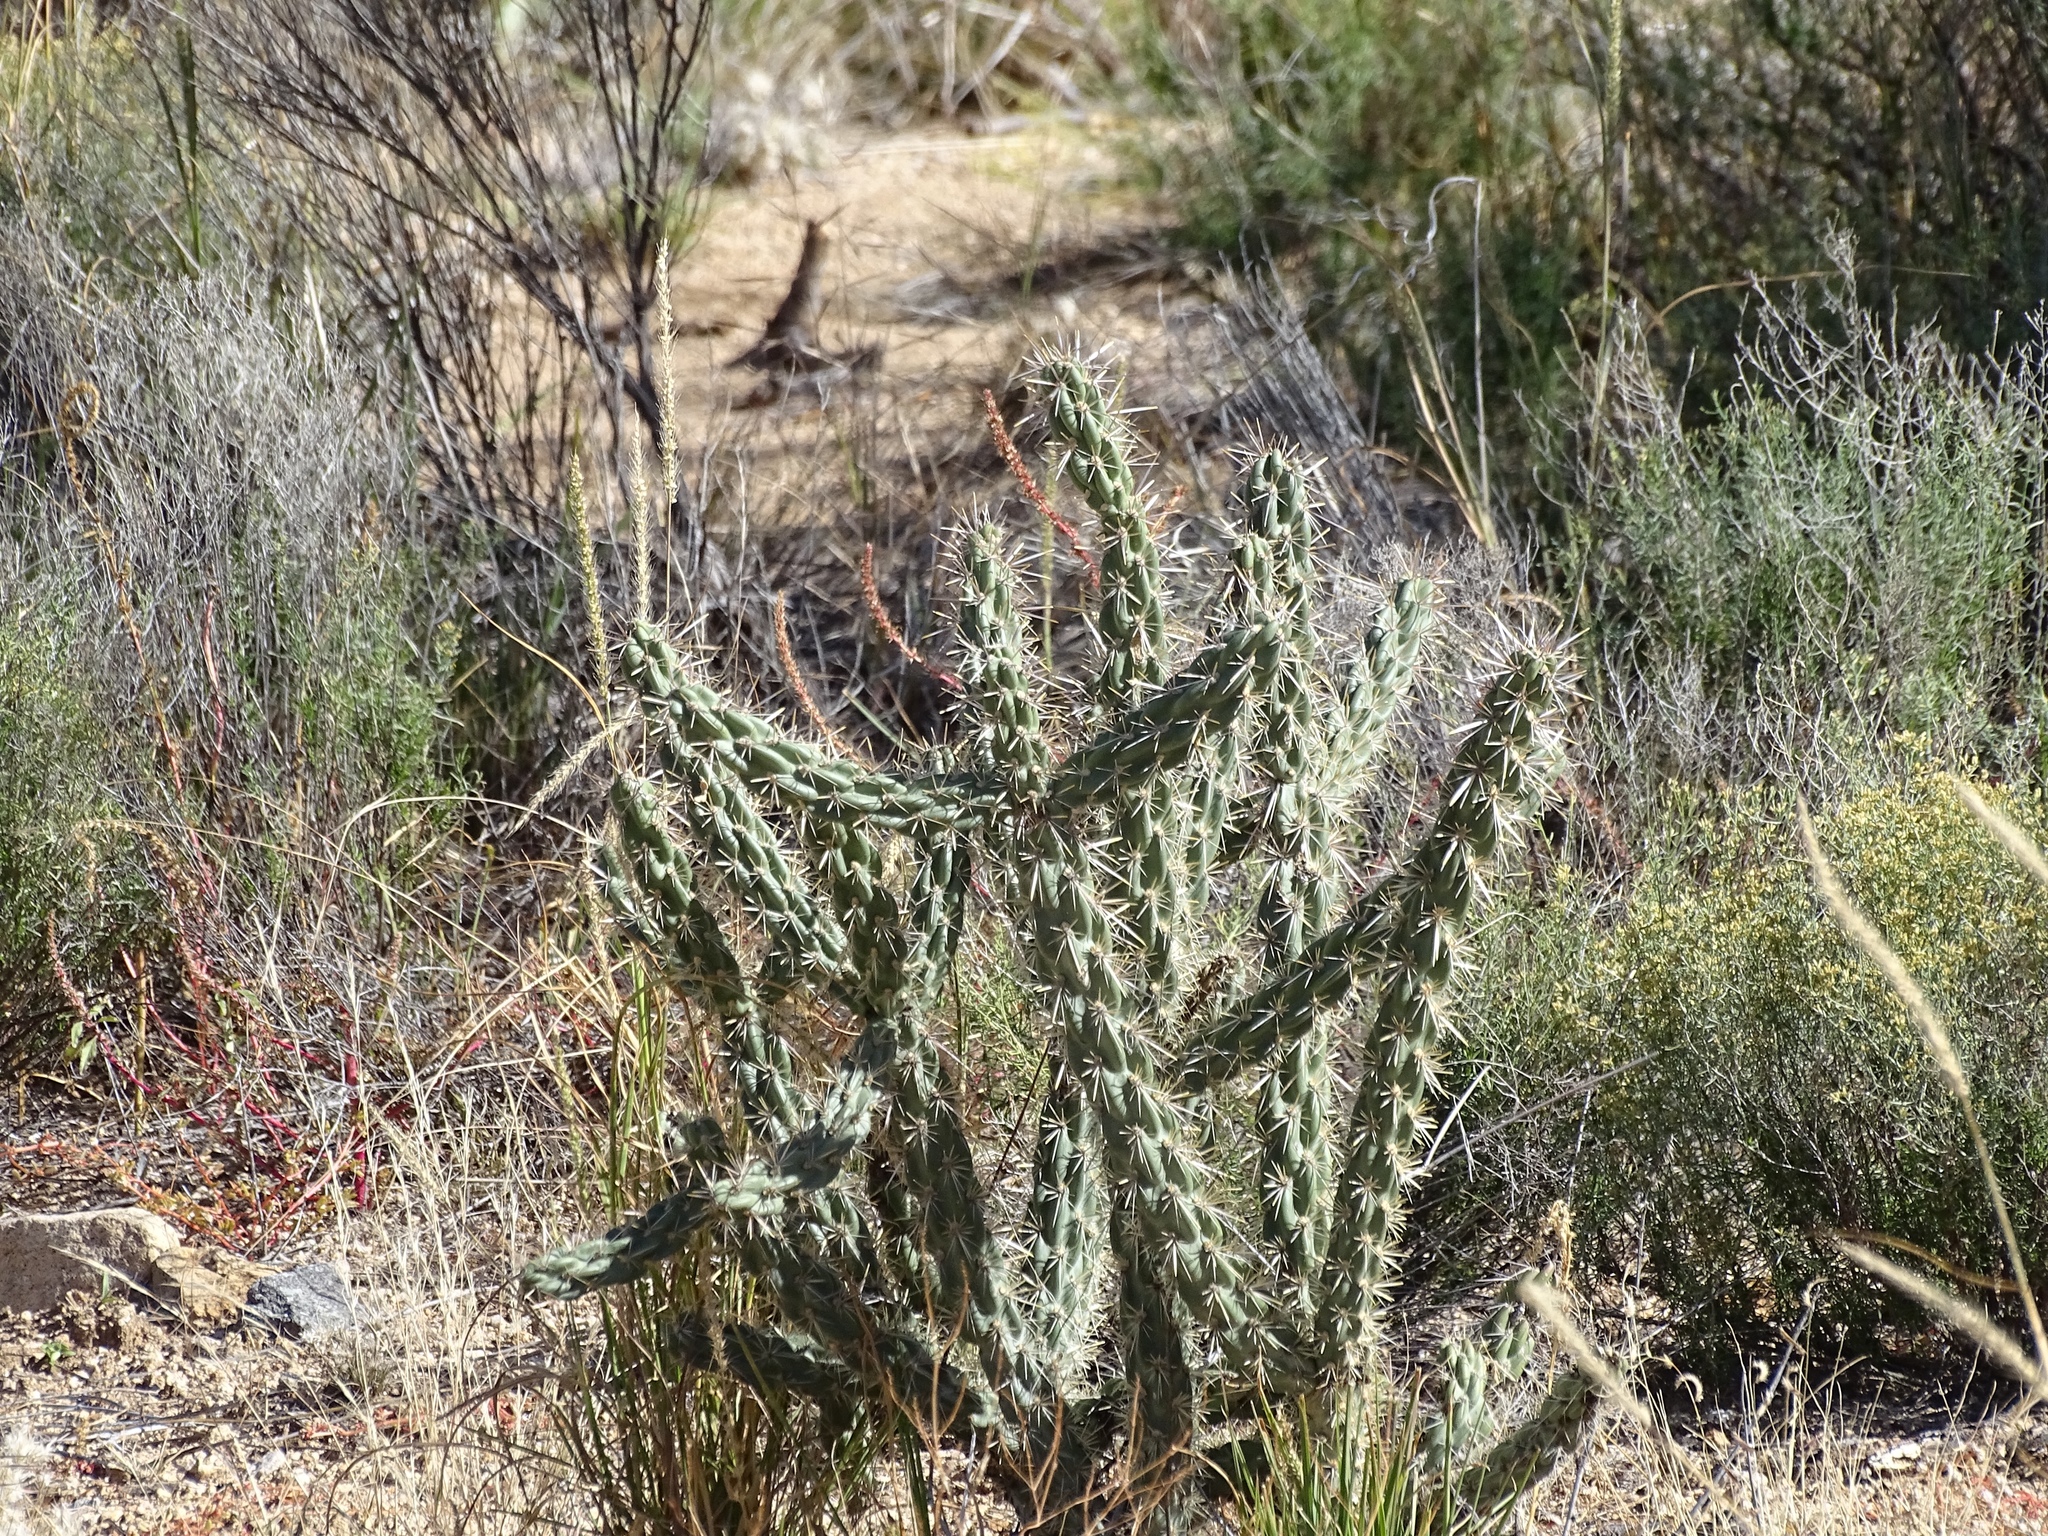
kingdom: Plantae
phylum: Tracheophyta
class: Magnoliopsida
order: Caryophyllales
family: Cactaceae
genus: Cylindropuntia
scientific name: Cylindropuntia imbricata
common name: Candelabrum cactus
